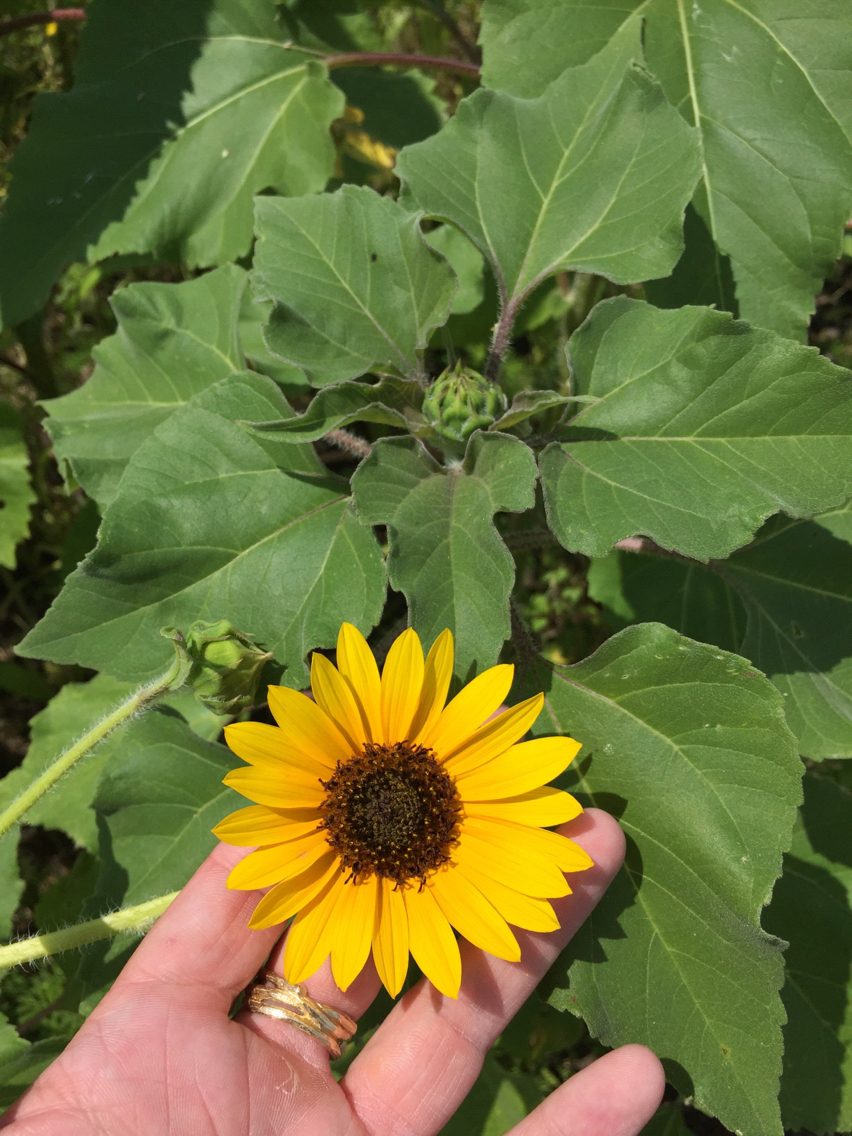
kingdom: Plantae
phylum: Tracheophyta
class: Magnoliopsida
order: Asterales
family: Asteraceae
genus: Helianthus
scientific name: Helianthus annuus
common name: Sunflower
